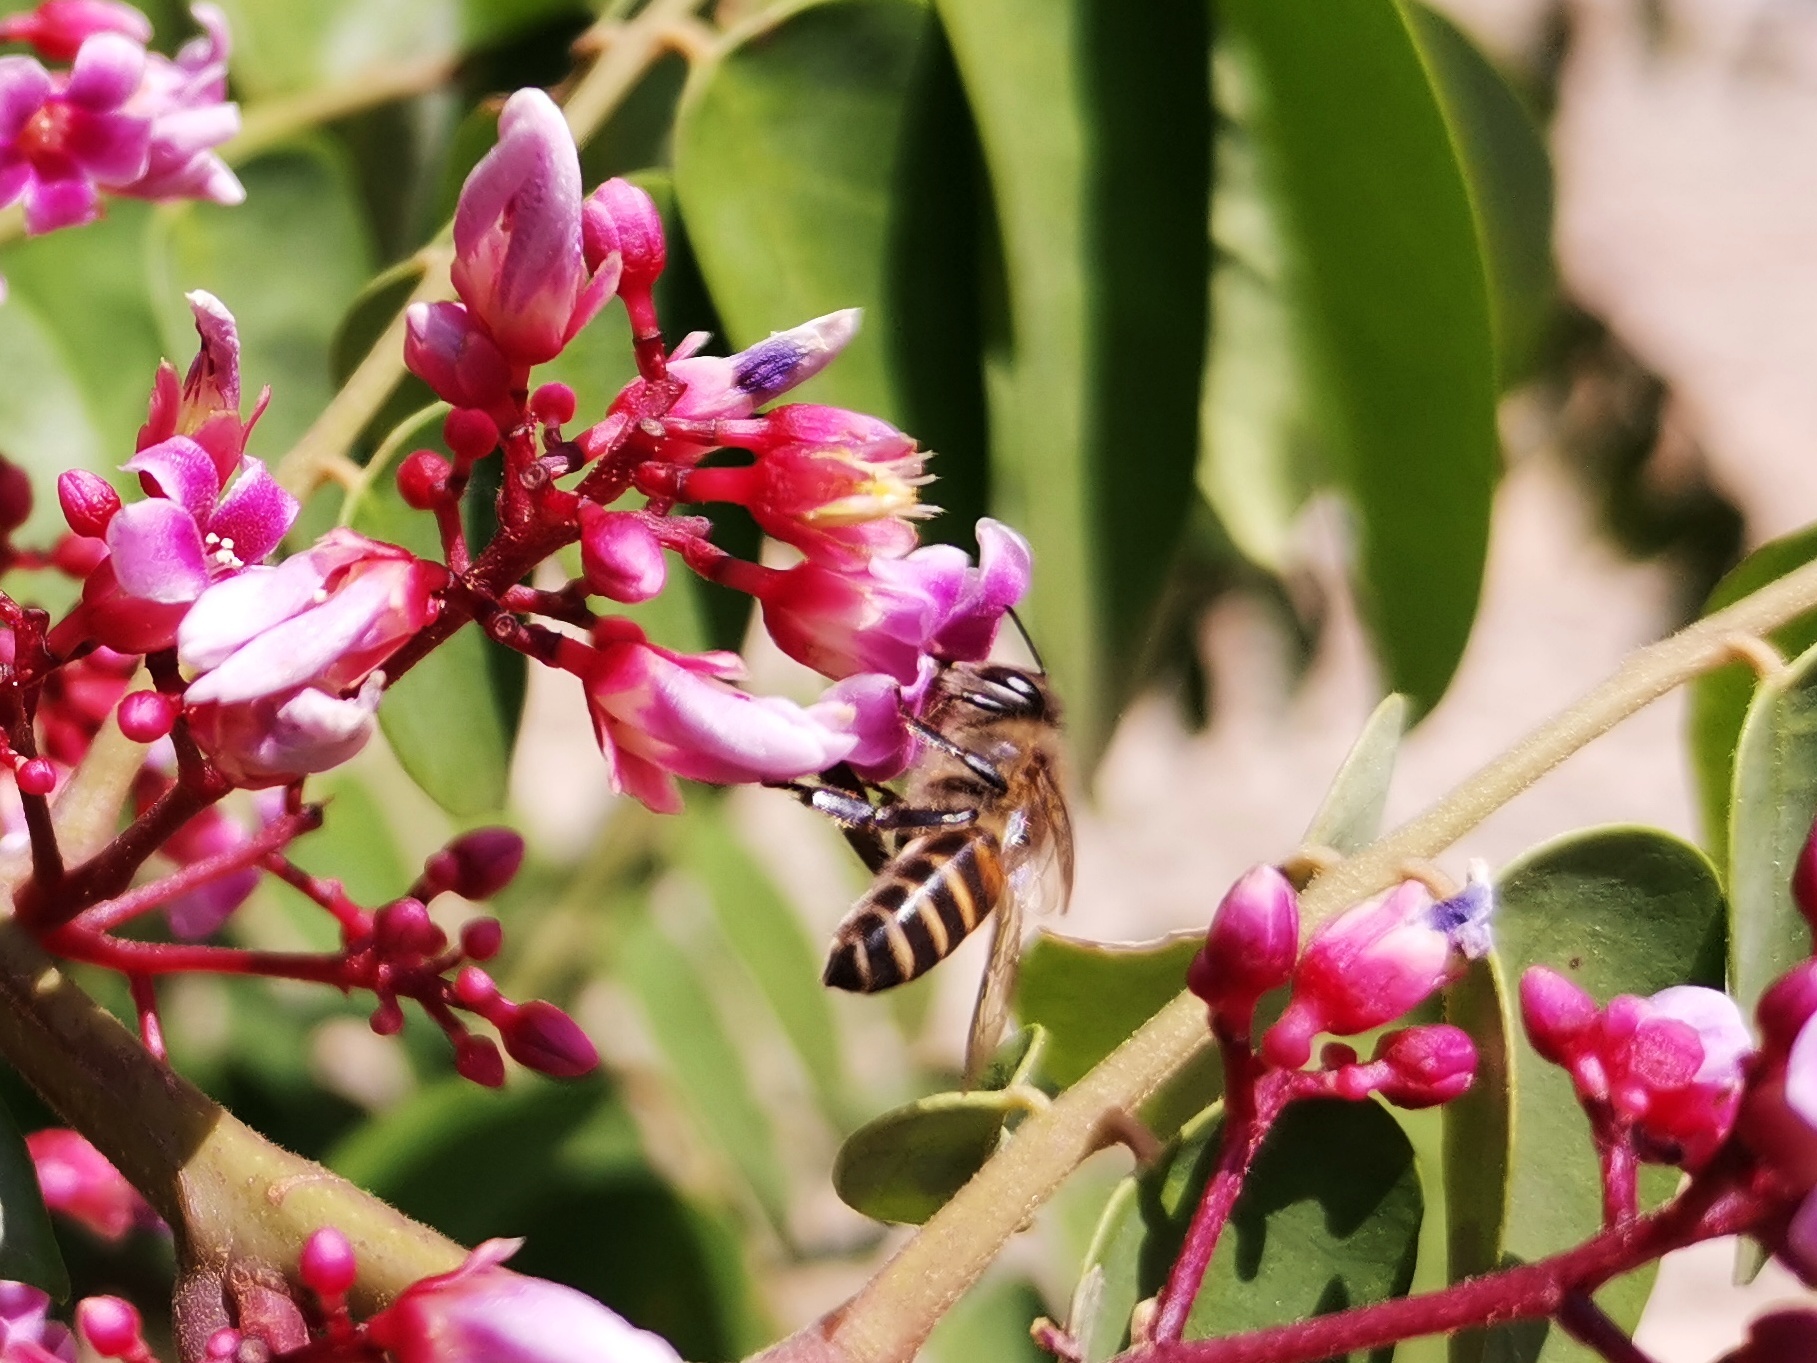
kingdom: Animalia
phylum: Arthropoda
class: Insecta
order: Hymenoptera
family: Apidae
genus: Apis
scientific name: Apis cerana
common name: Honey bee
